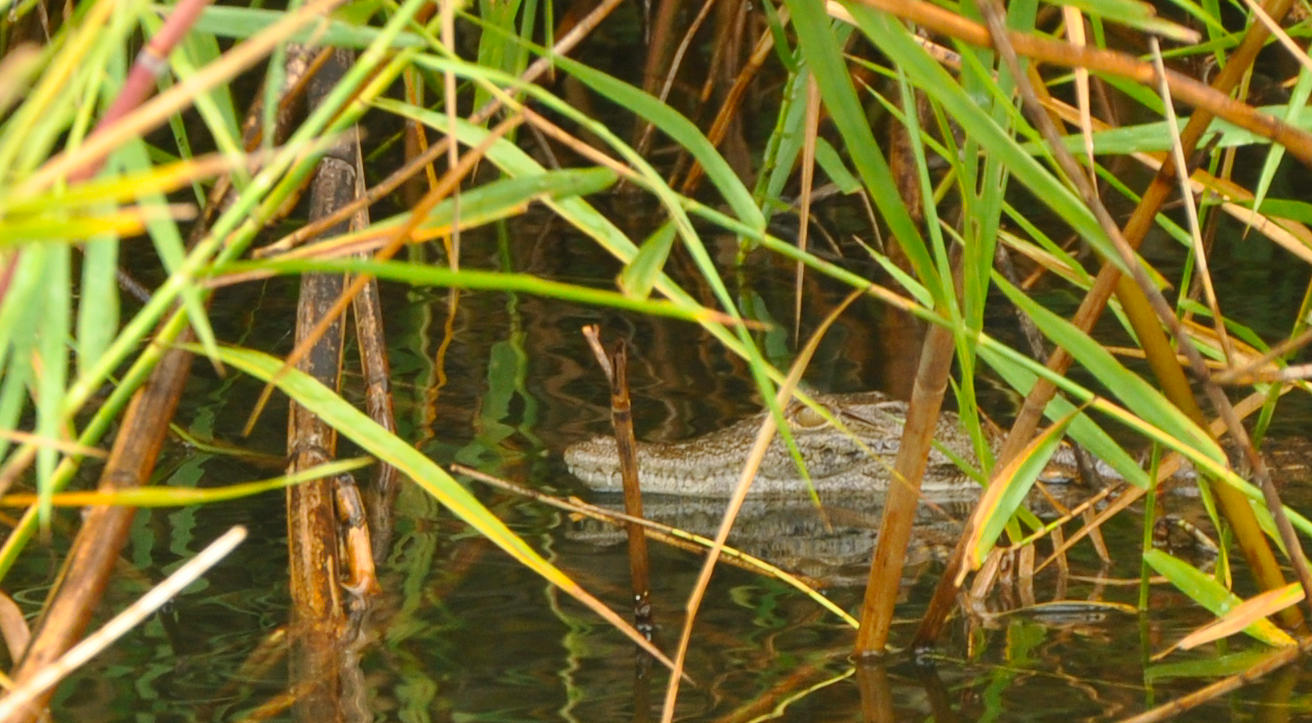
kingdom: Animalia
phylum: Chordata
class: Crocodylia
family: Crocodylidae
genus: Crocodylus
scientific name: Crocodylus niloticus
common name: Nile crocodile
